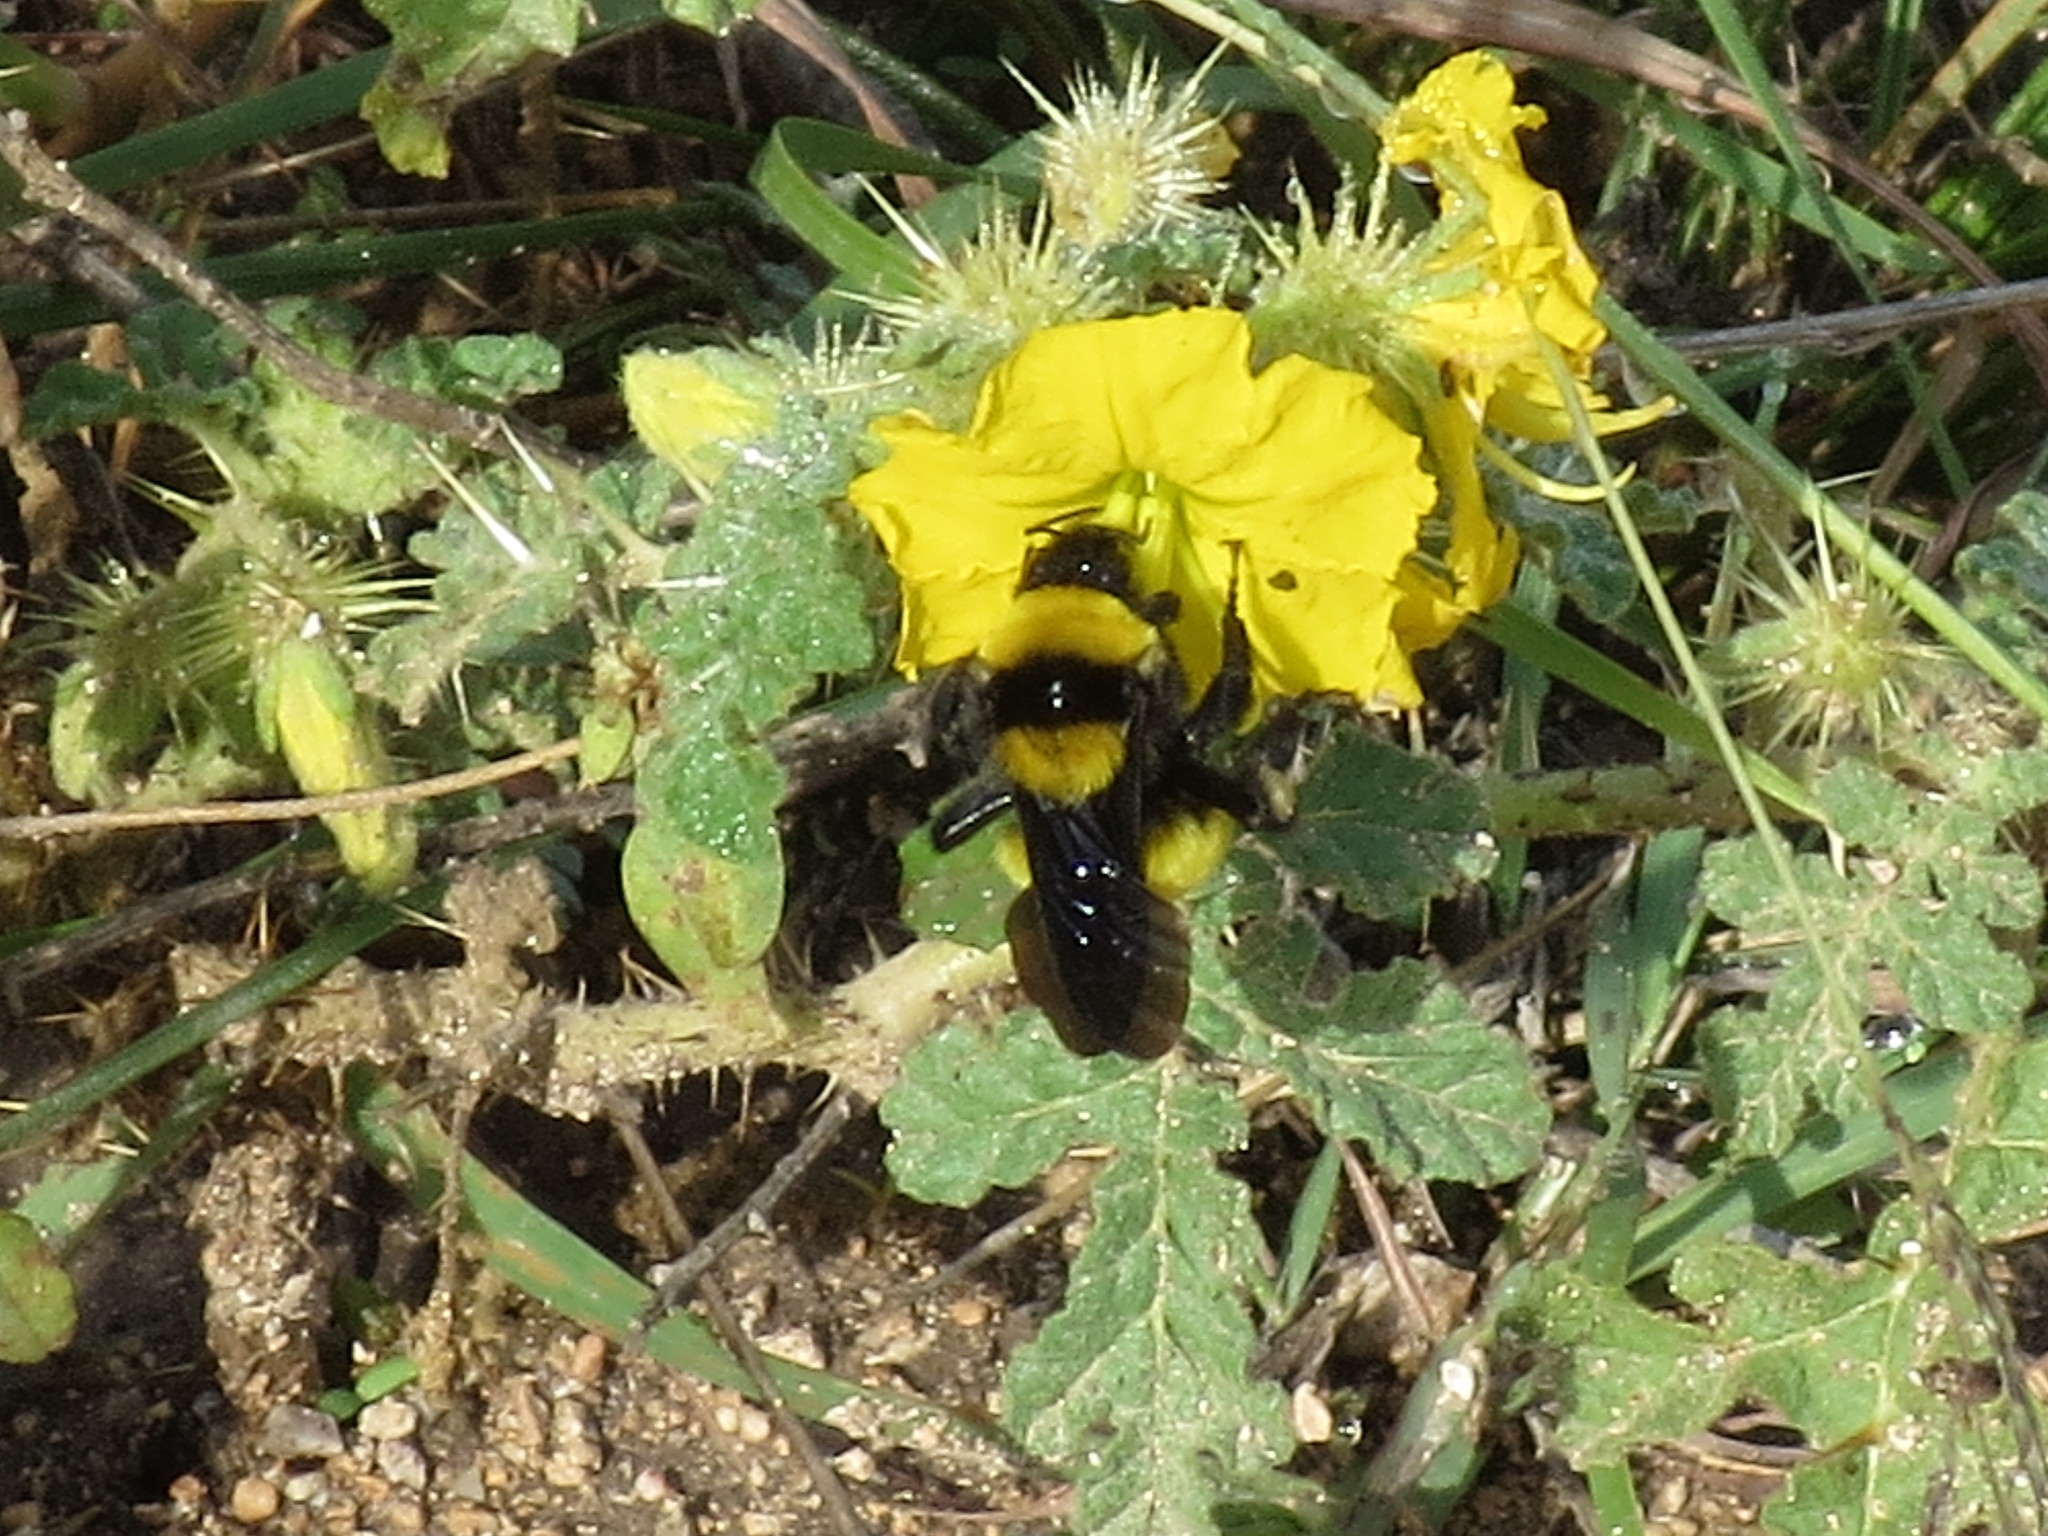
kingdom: Animalia
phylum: Arthropoda
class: Insecta
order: Hymenoptera
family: Apidae
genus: Bombus
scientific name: Bombus sonorus
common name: Sonoran bumble bee
